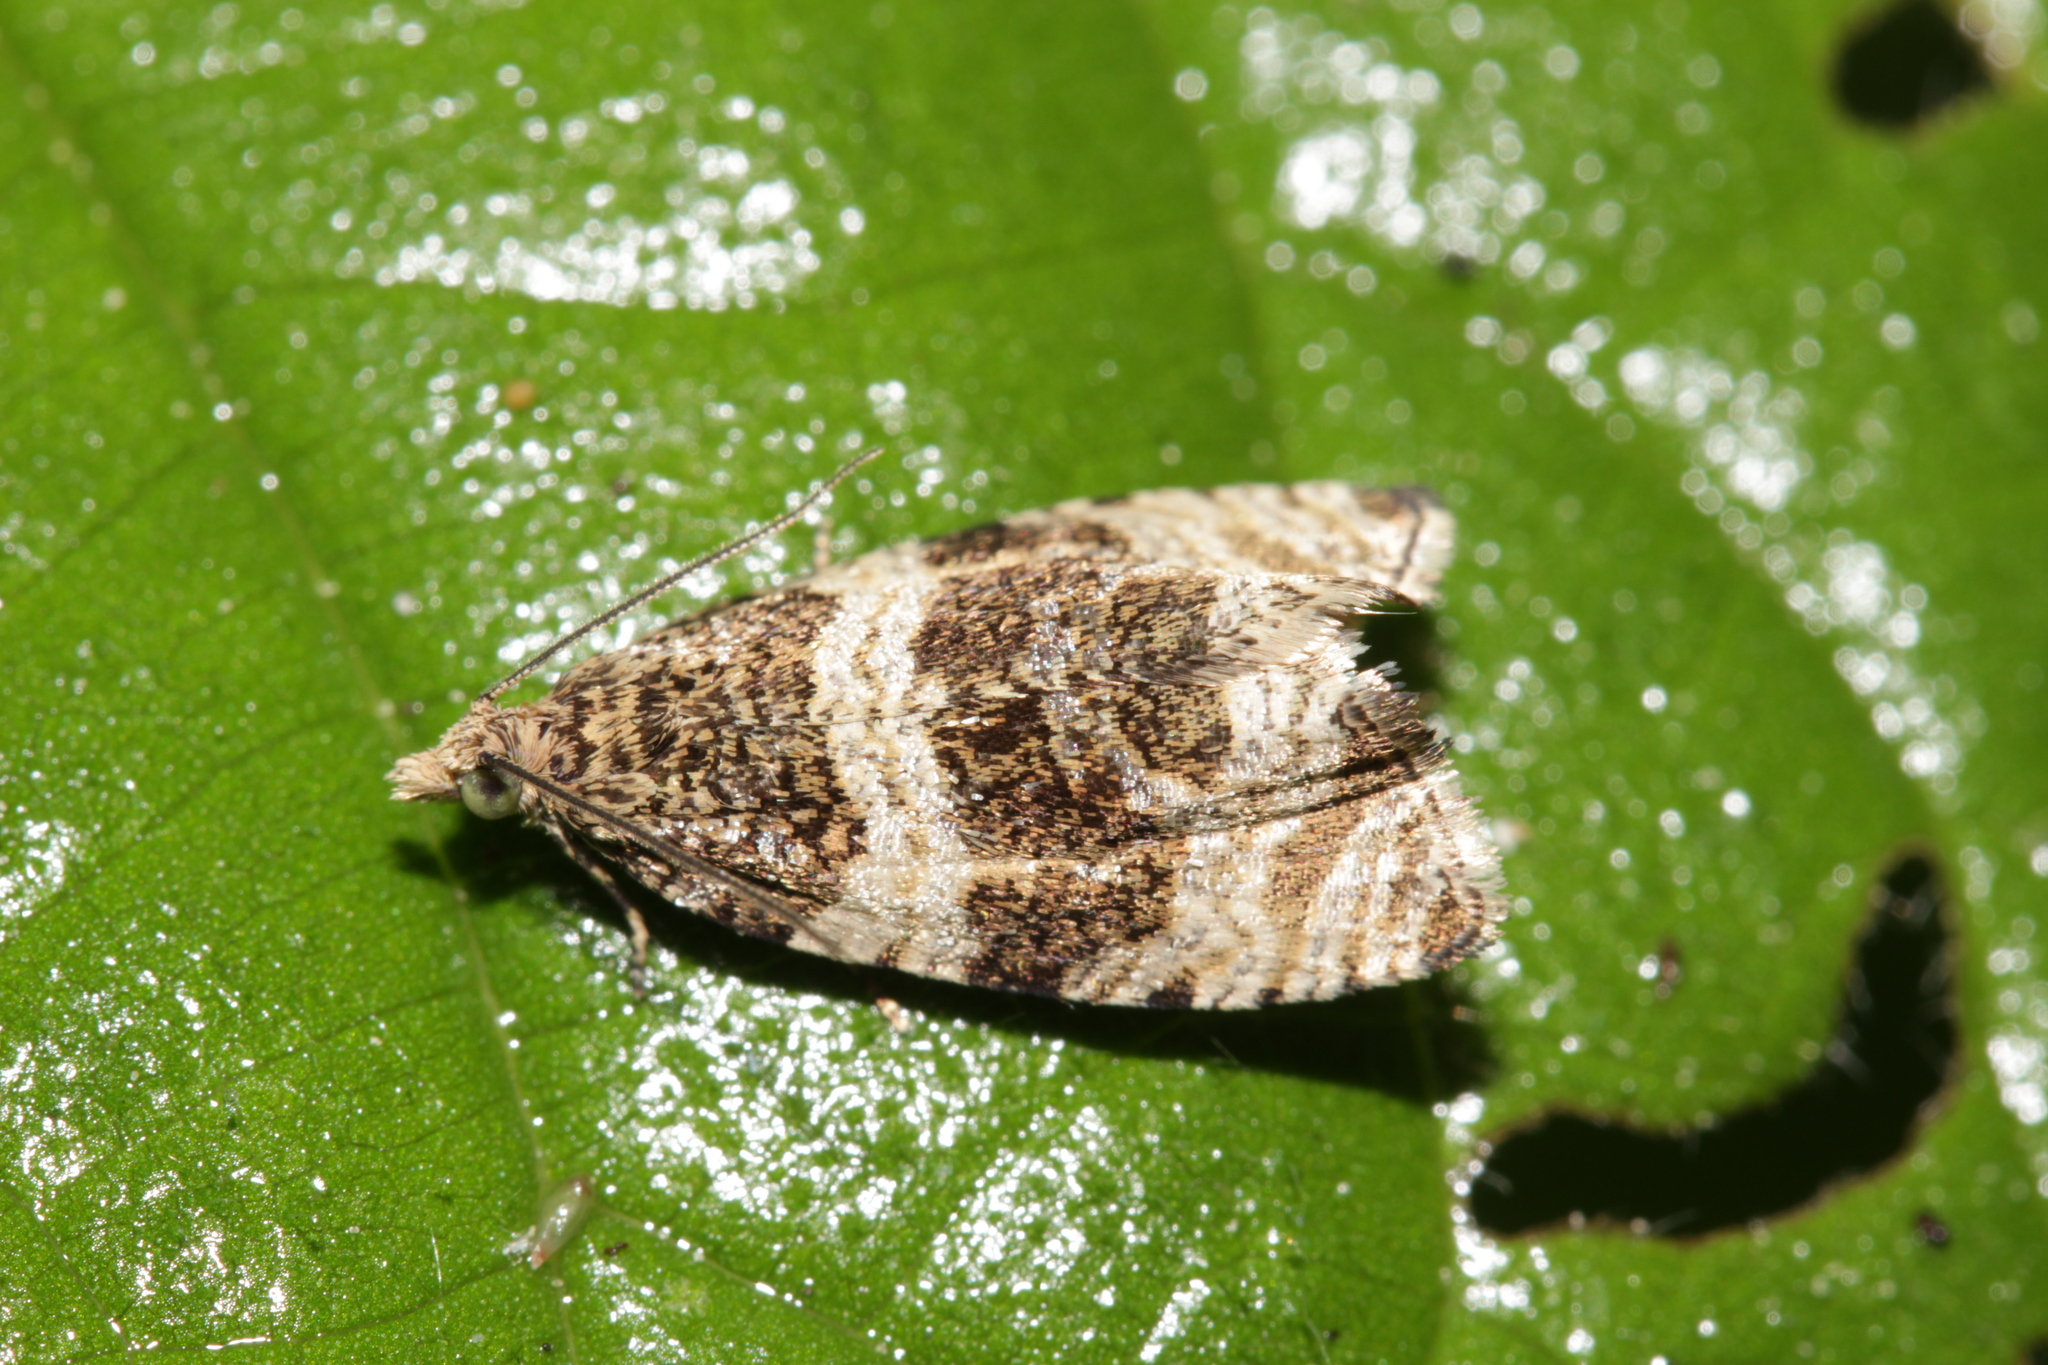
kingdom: Animalia
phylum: Arthropoda
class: Insecta
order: Lepidoptera
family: Tortricidae
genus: Olethreutes
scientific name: Olethreutes umbrosana
